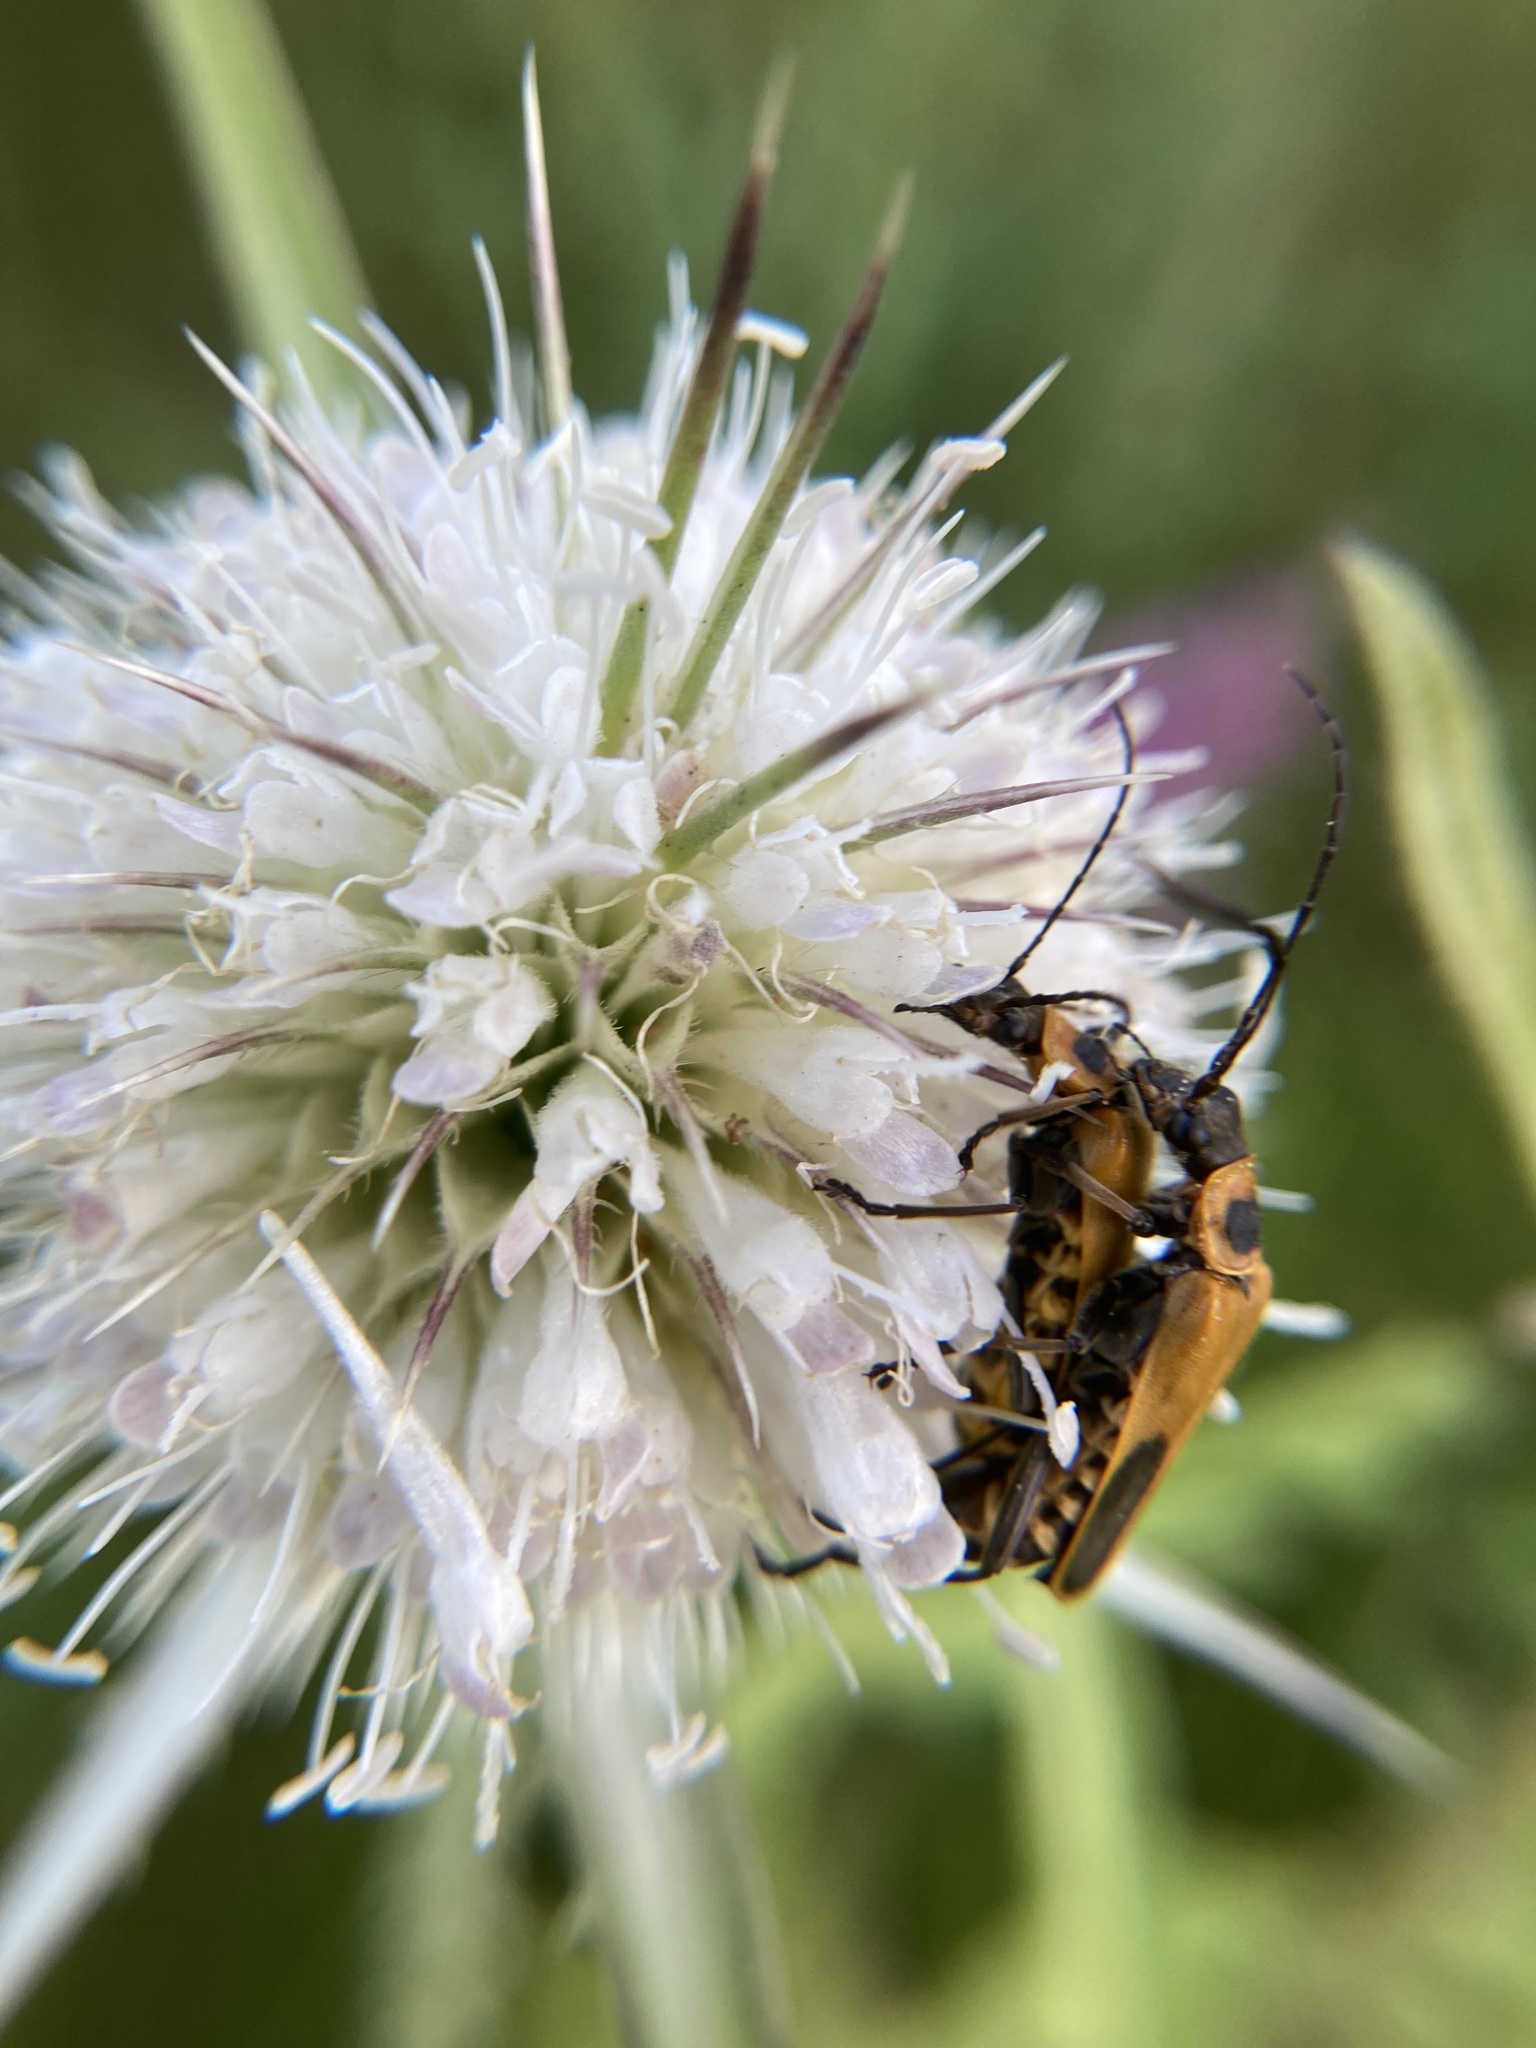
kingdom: Animalia
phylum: Arthropoda
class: Insecta
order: Coleoptera
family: Cantharidae
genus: Chauliognathus
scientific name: Chauliognathus pensylvanicus
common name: Goldenrod soldier beetle
